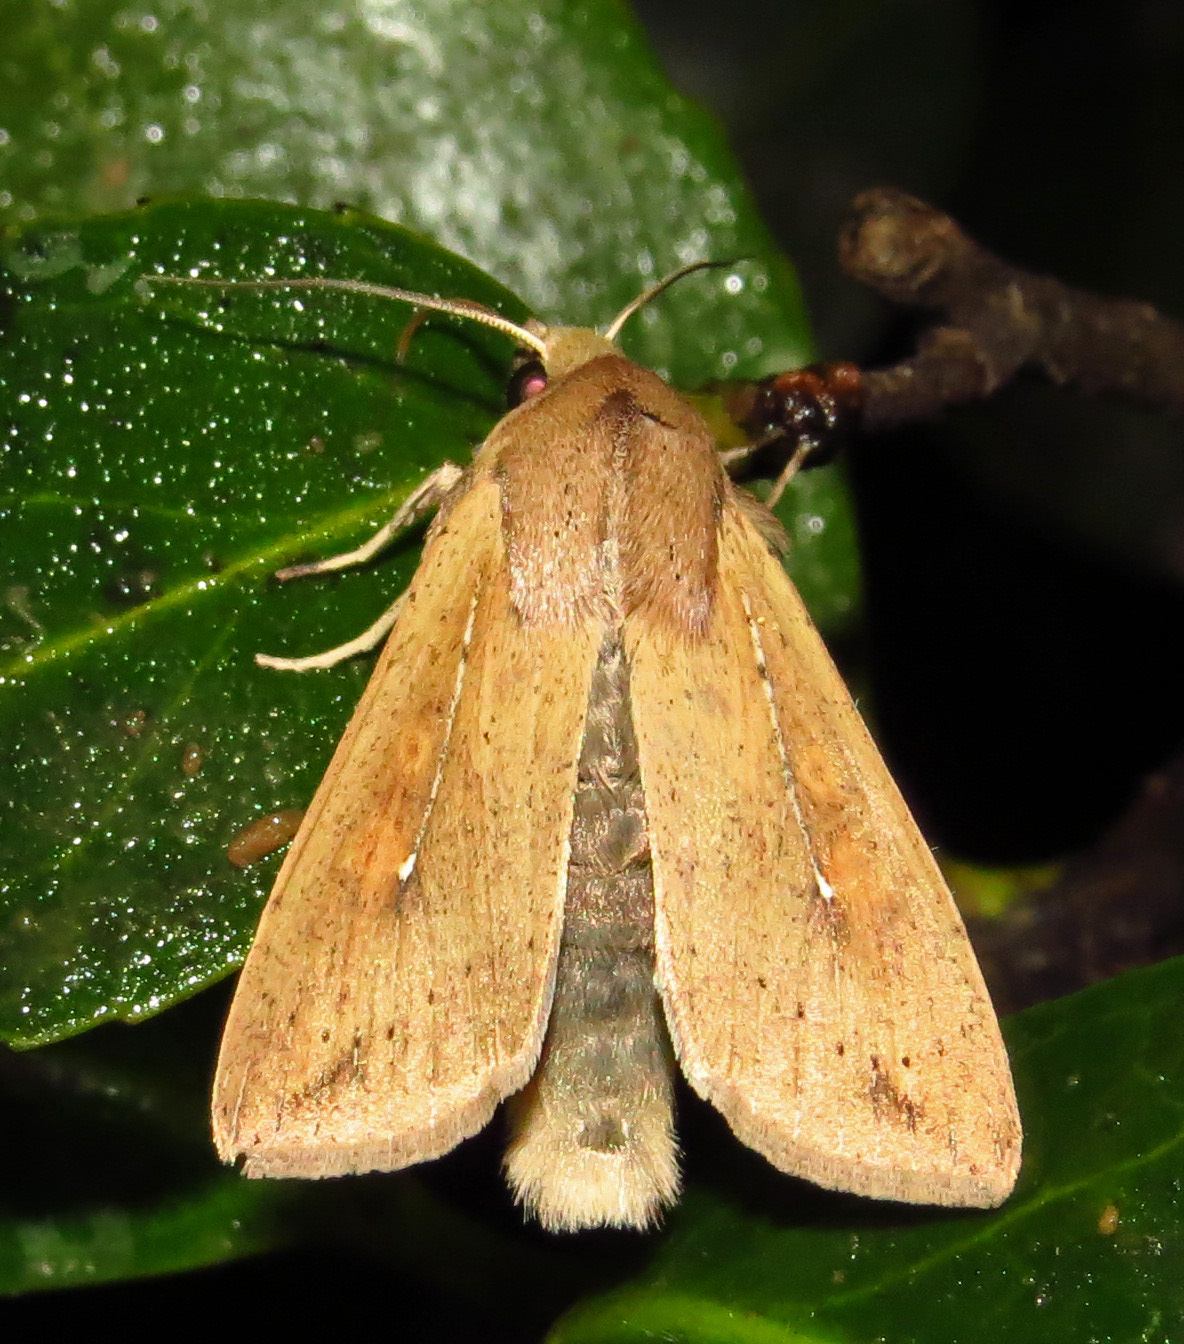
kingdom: Animalia
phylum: Arthropoda
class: Insecta
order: Lepidoptera
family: Noctuidae
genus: Mythimna
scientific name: Mythimna unipuncta
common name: White-speck
